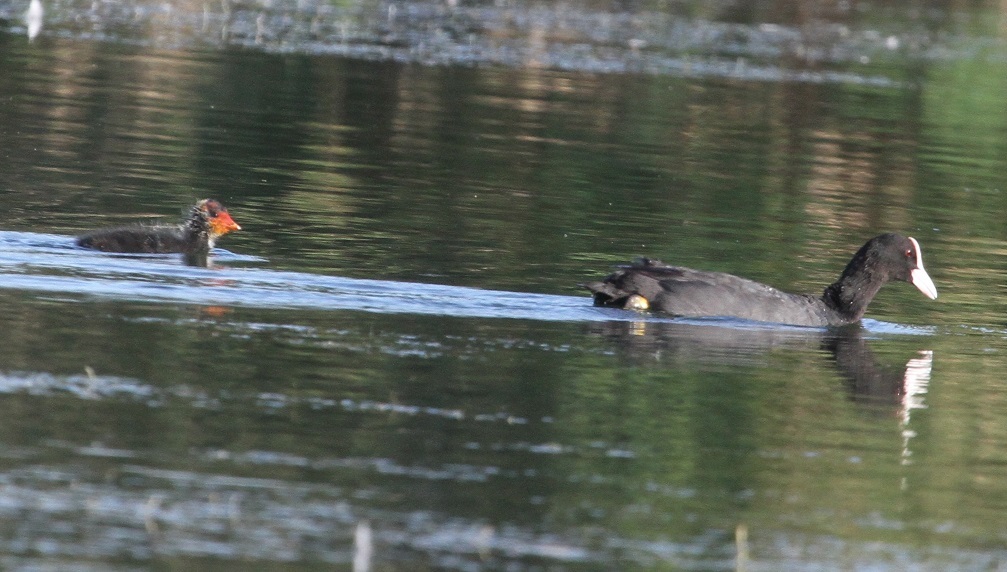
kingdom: Animalia
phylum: Chordata
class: Aves
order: Gruiformes
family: Rallidae
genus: Fulica
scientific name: Fulica atra
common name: Eurasian coot
